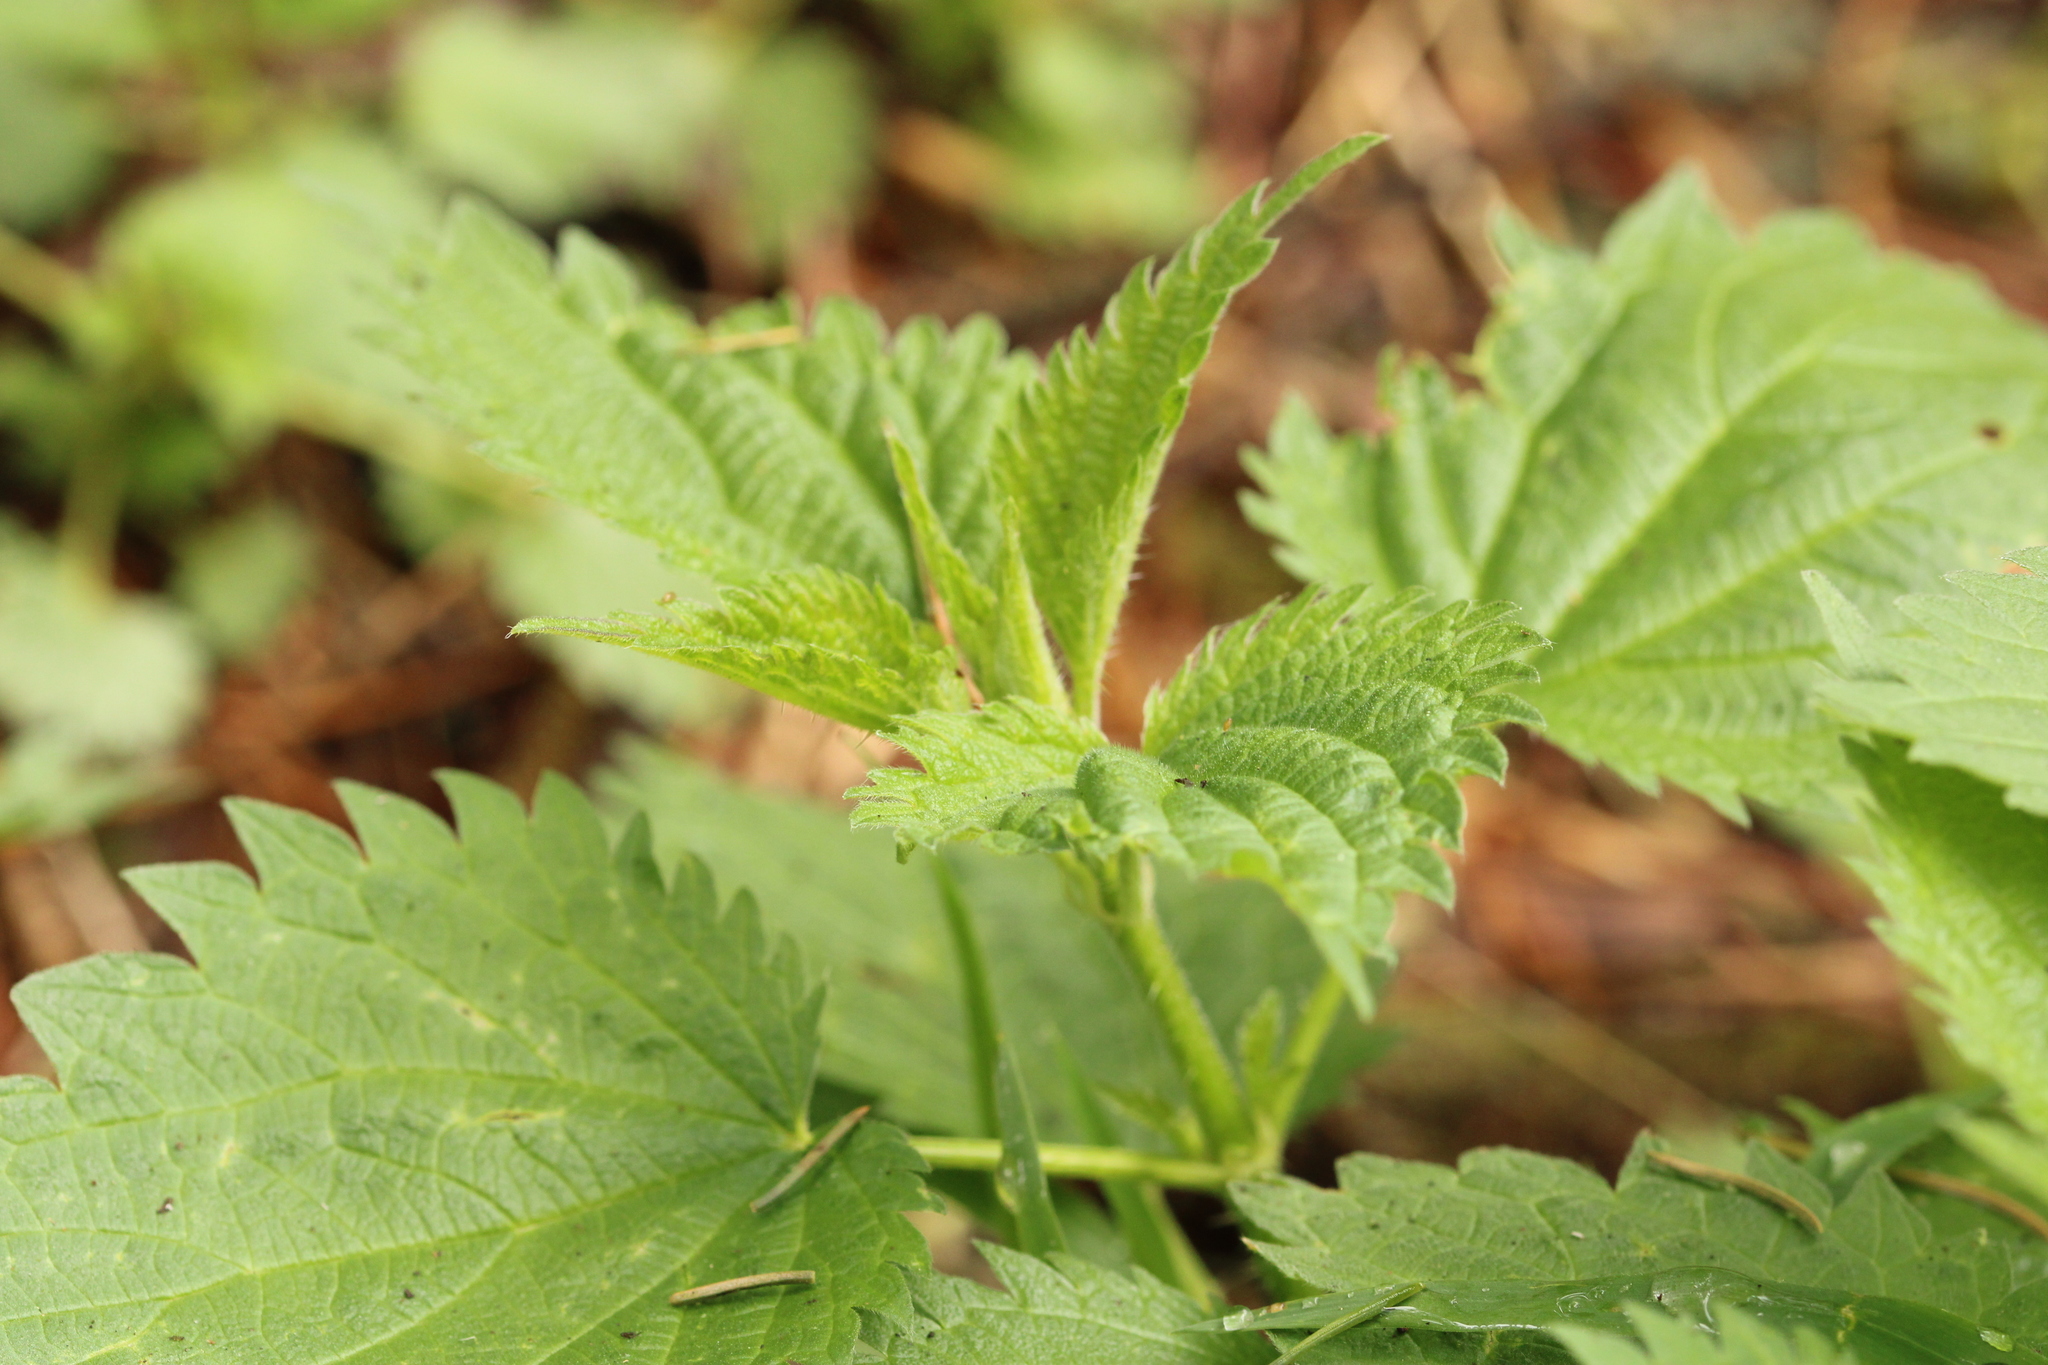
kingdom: Plantae
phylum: Tracheophyta
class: Magnoliopsida
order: Rosales
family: Urticaceae
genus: Urtica
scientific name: Urtica dioica
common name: Common nettle
